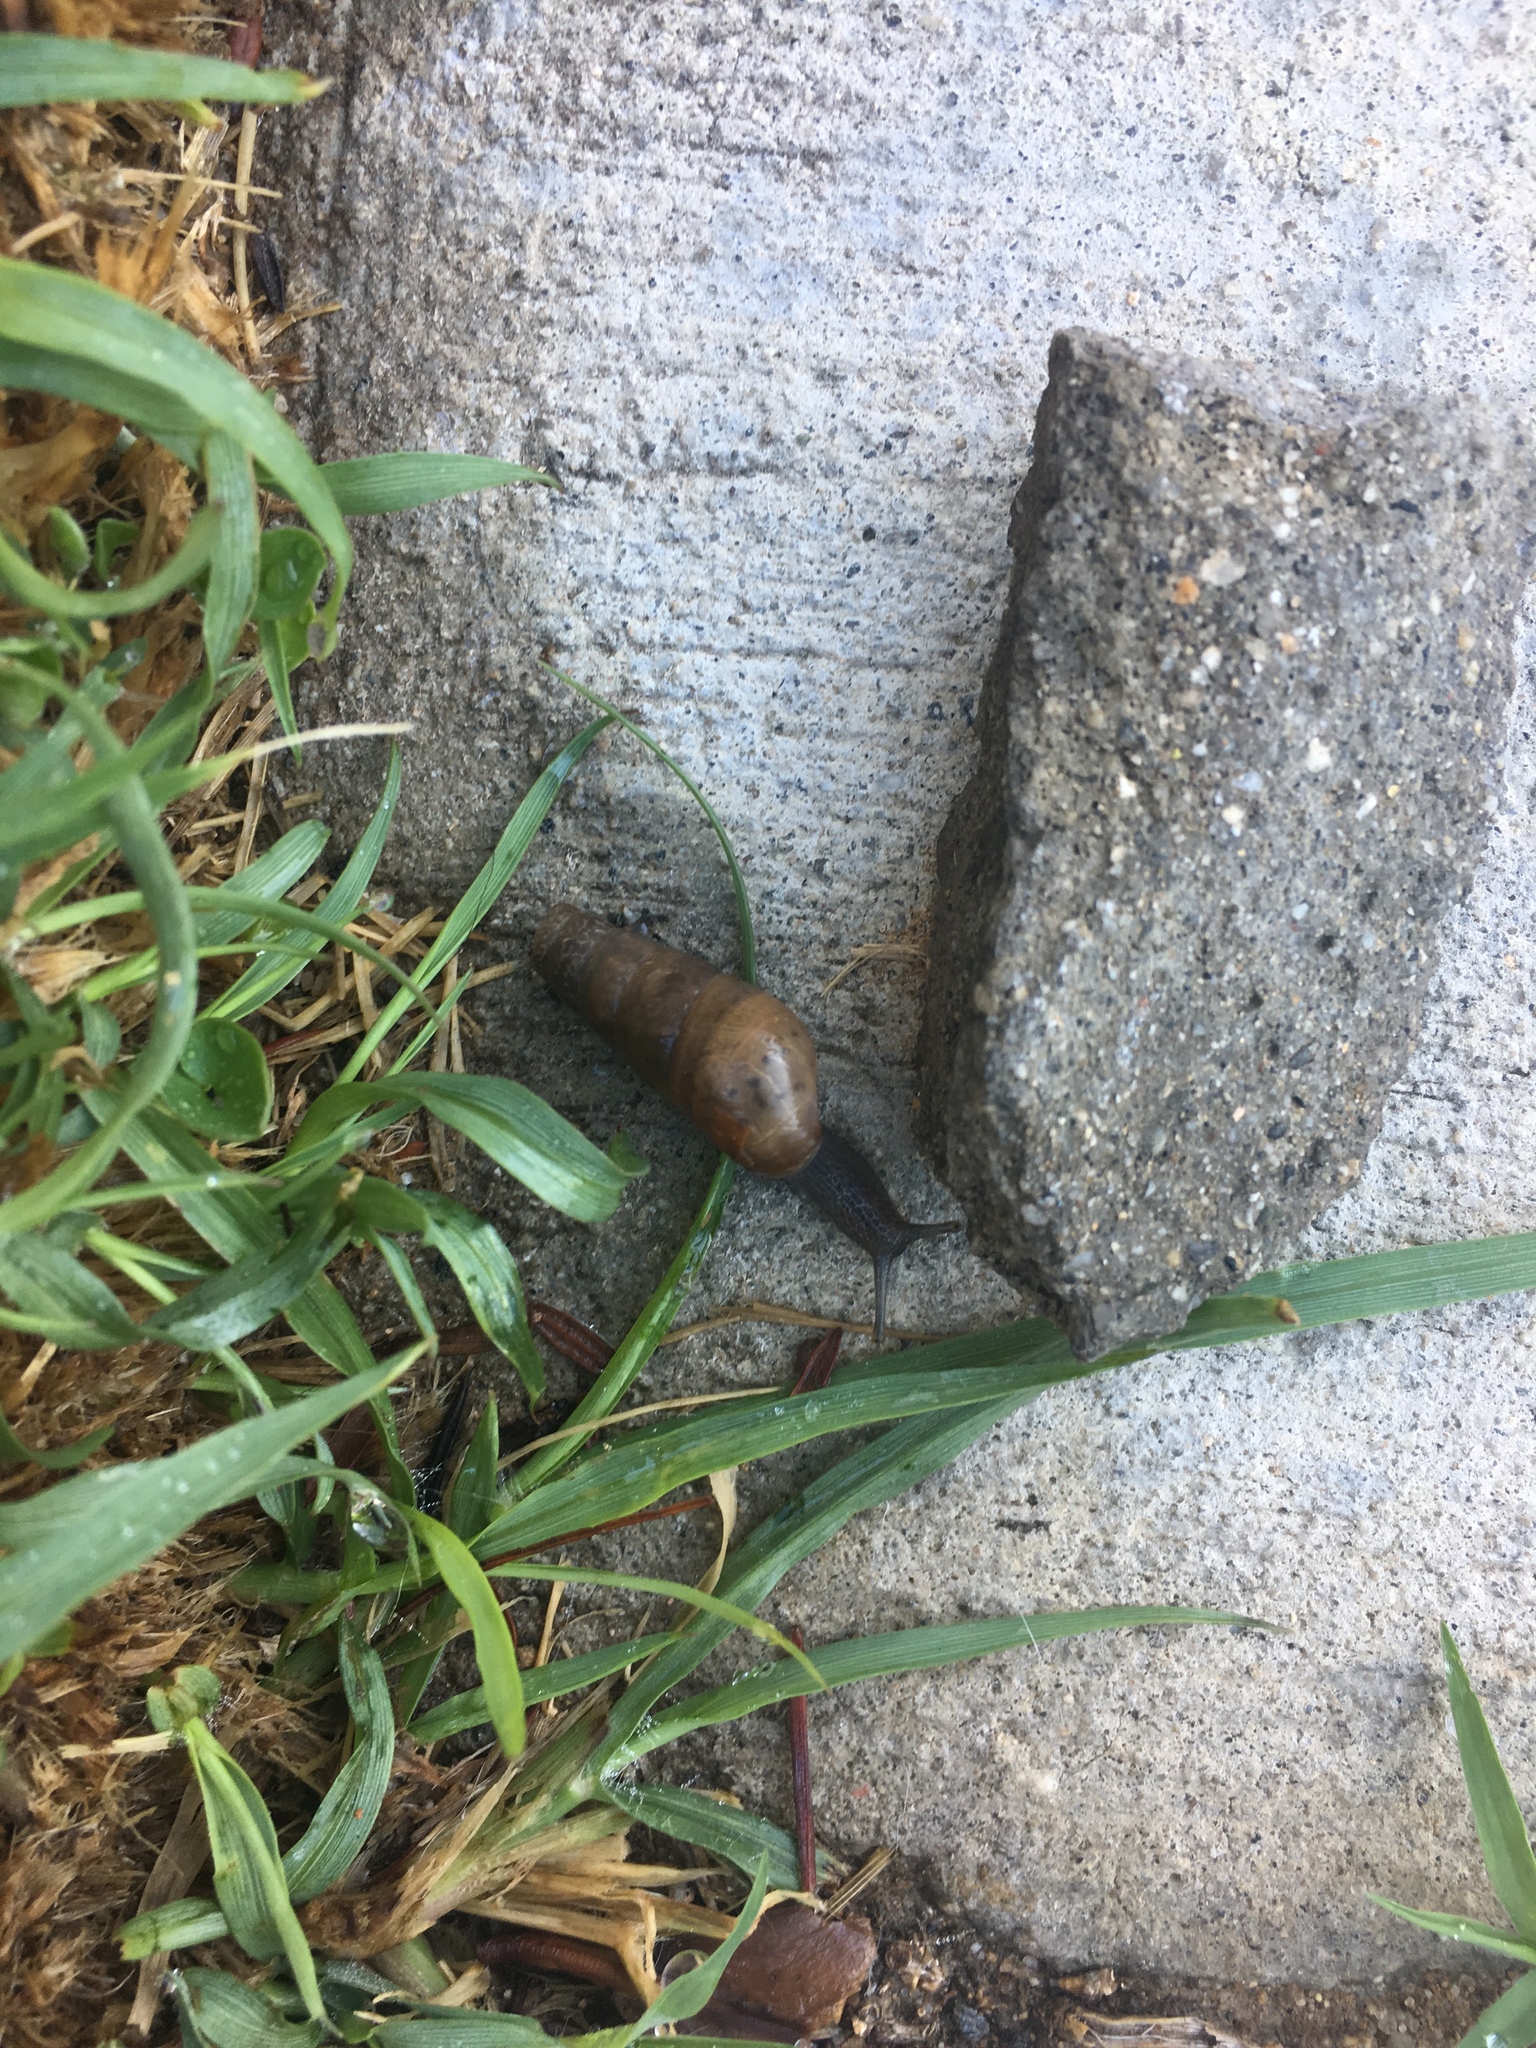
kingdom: Animalia
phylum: Mollusca
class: Gastropoda
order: Stylommatophora
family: Achatinidae
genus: Rumina
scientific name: Rumina decollata
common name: Decollate snail
